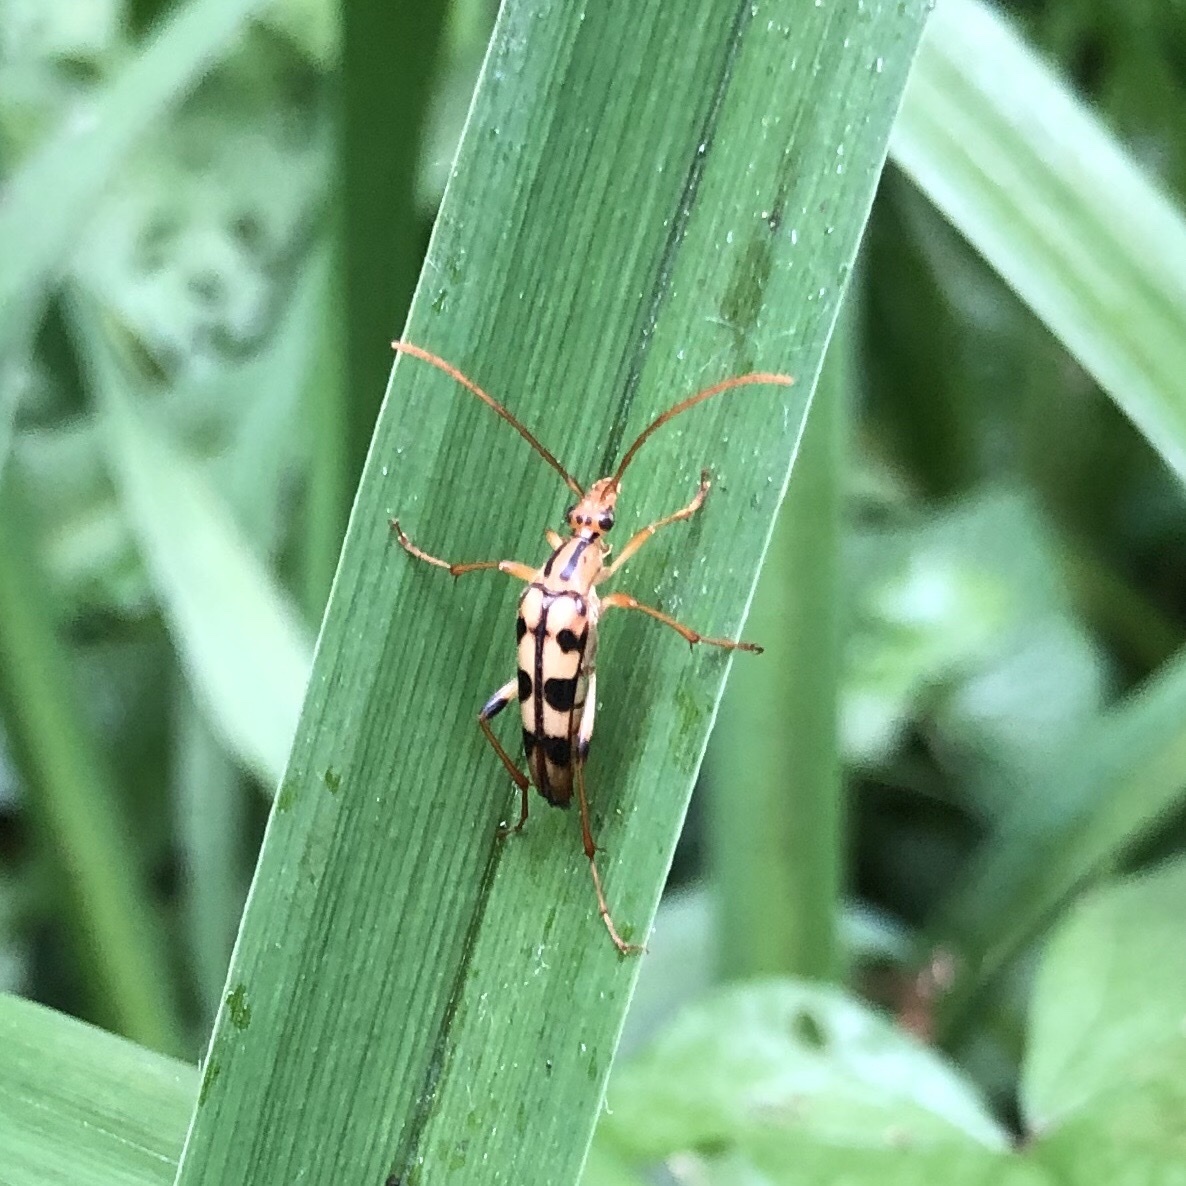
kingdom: Animalia
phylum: Arthropoda
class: Insecta
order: Coleoptera
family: Cerambycidae
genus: Strangalia
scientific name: Strangalia luteicornis
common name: Yellow-horned flower longhorn beetle
